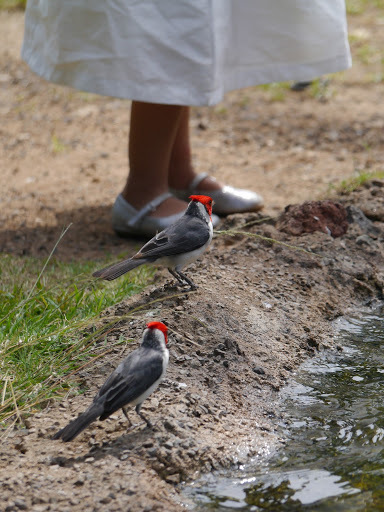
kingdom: Animalia
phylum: Chordata
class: Aves
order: Passeriformes
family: Thraupidae
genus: Paroaria
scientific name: Paroaria coronata
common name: Red-crested cardinal
